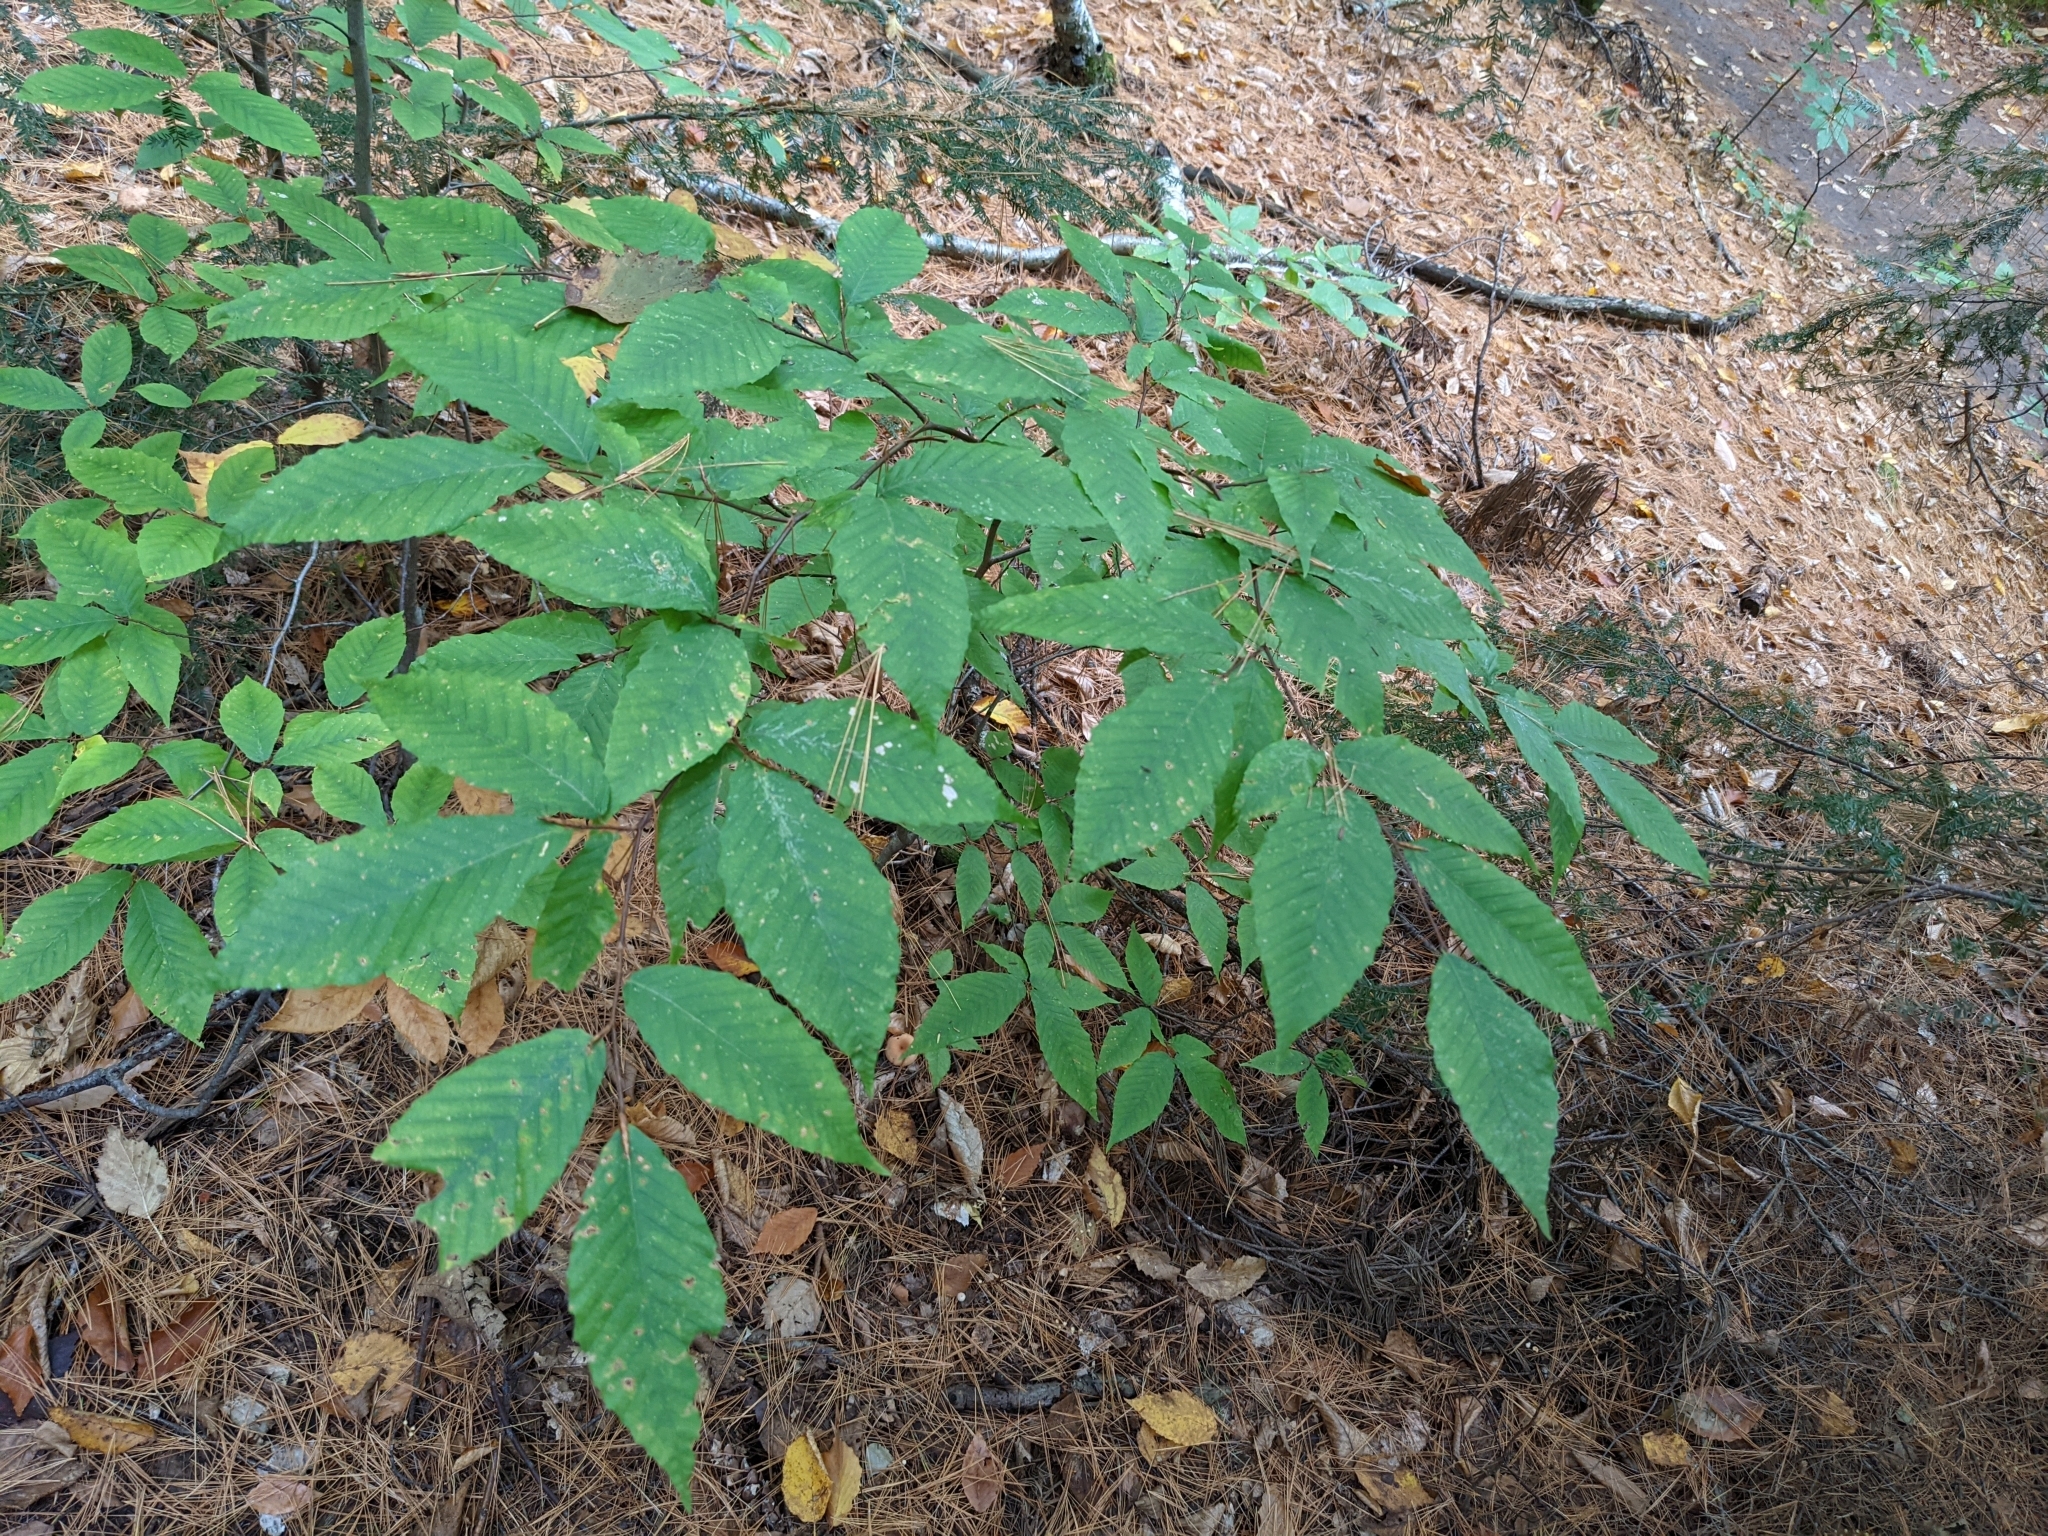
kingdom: Plantae
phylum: Tracheophyta
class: Magnoliopsida
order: Fagales
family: Fagaceae
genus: Fagus
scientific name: Fagus grandifolia
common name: American beech
